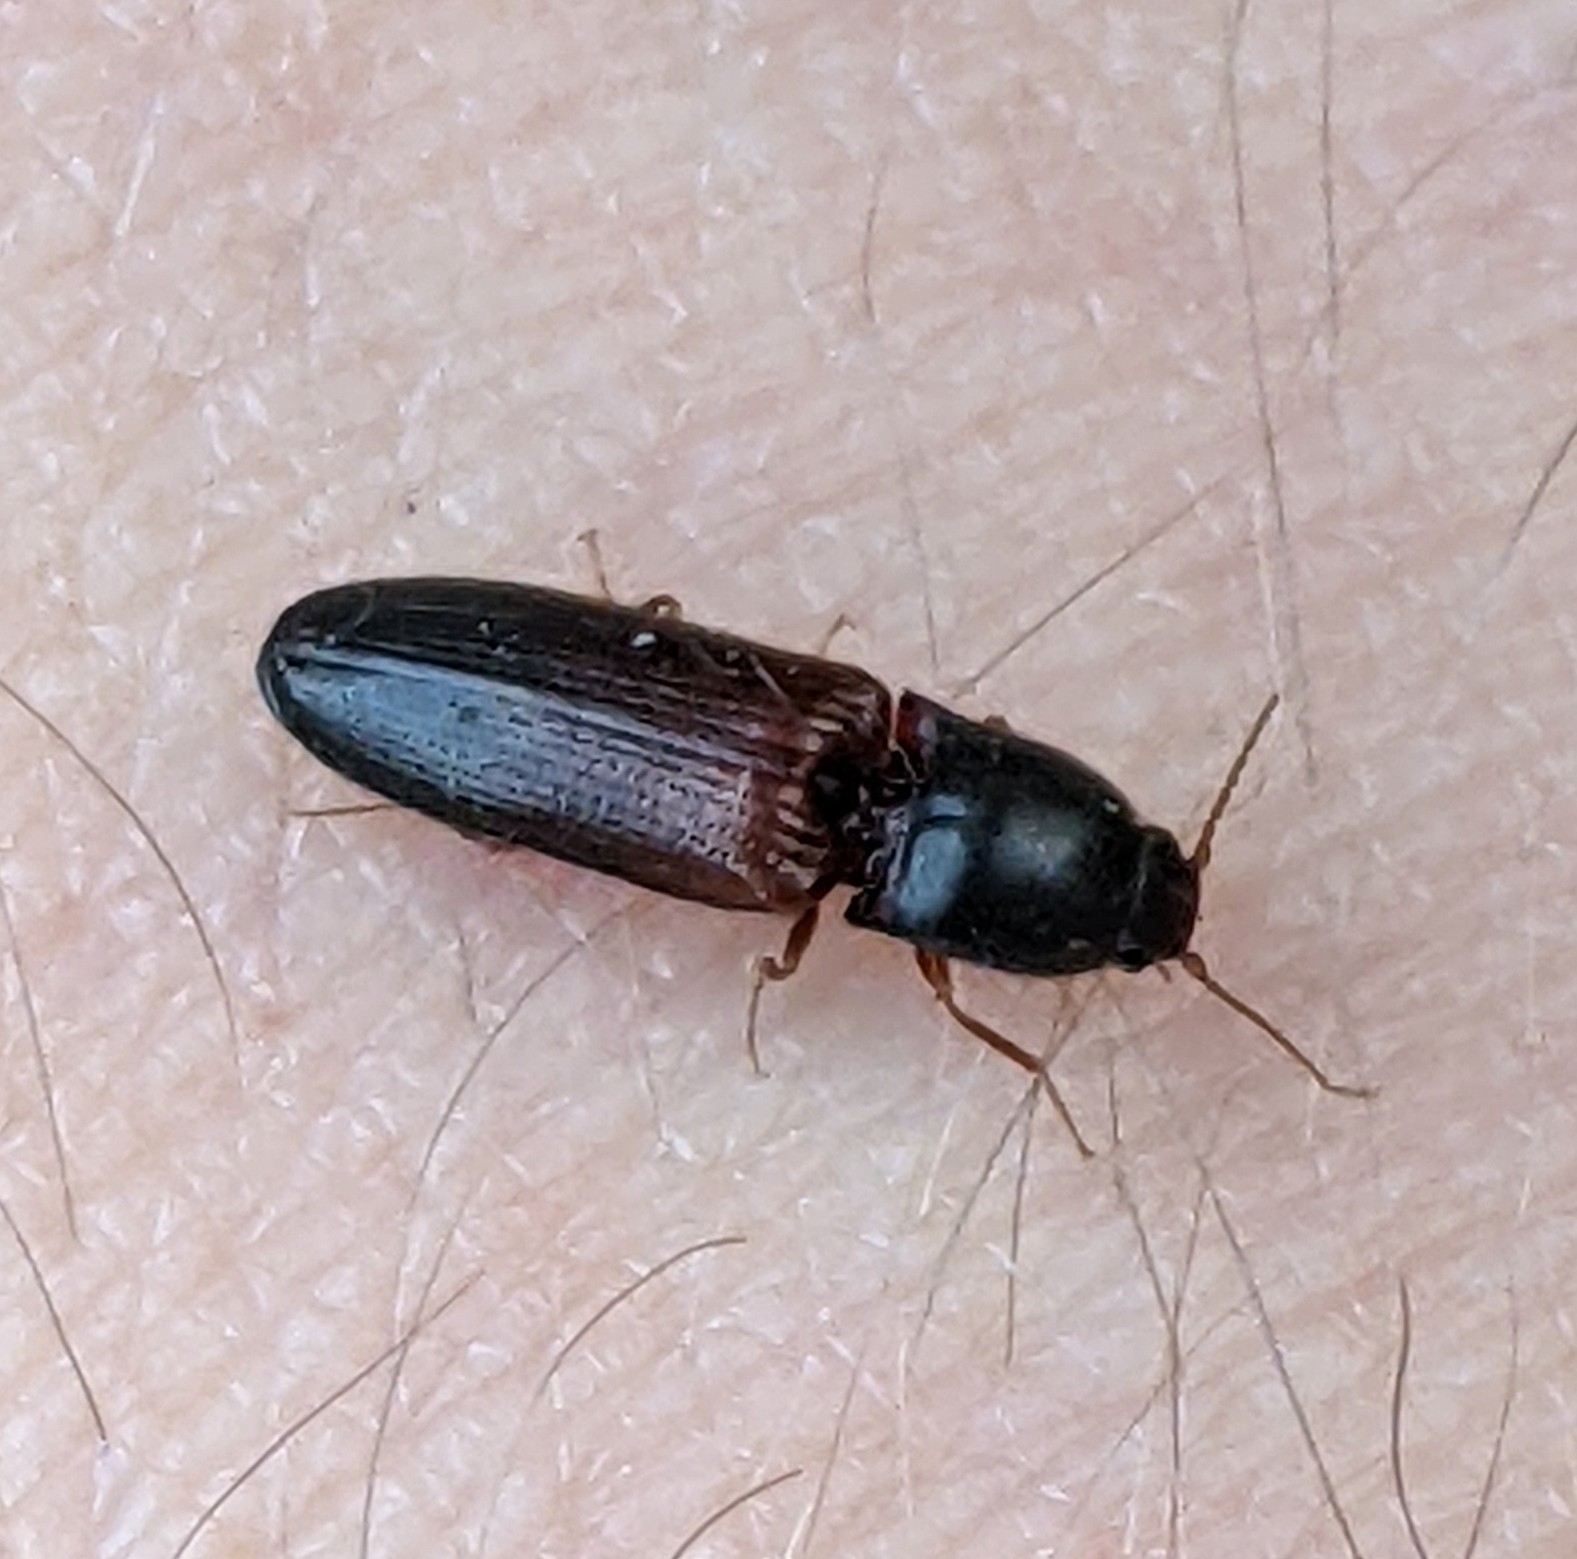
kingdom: Animalia
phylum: Arthropoda
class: Insecta
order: Coleoptera
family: Elateridae
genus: Elathous
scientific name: Elathous nebulosus
